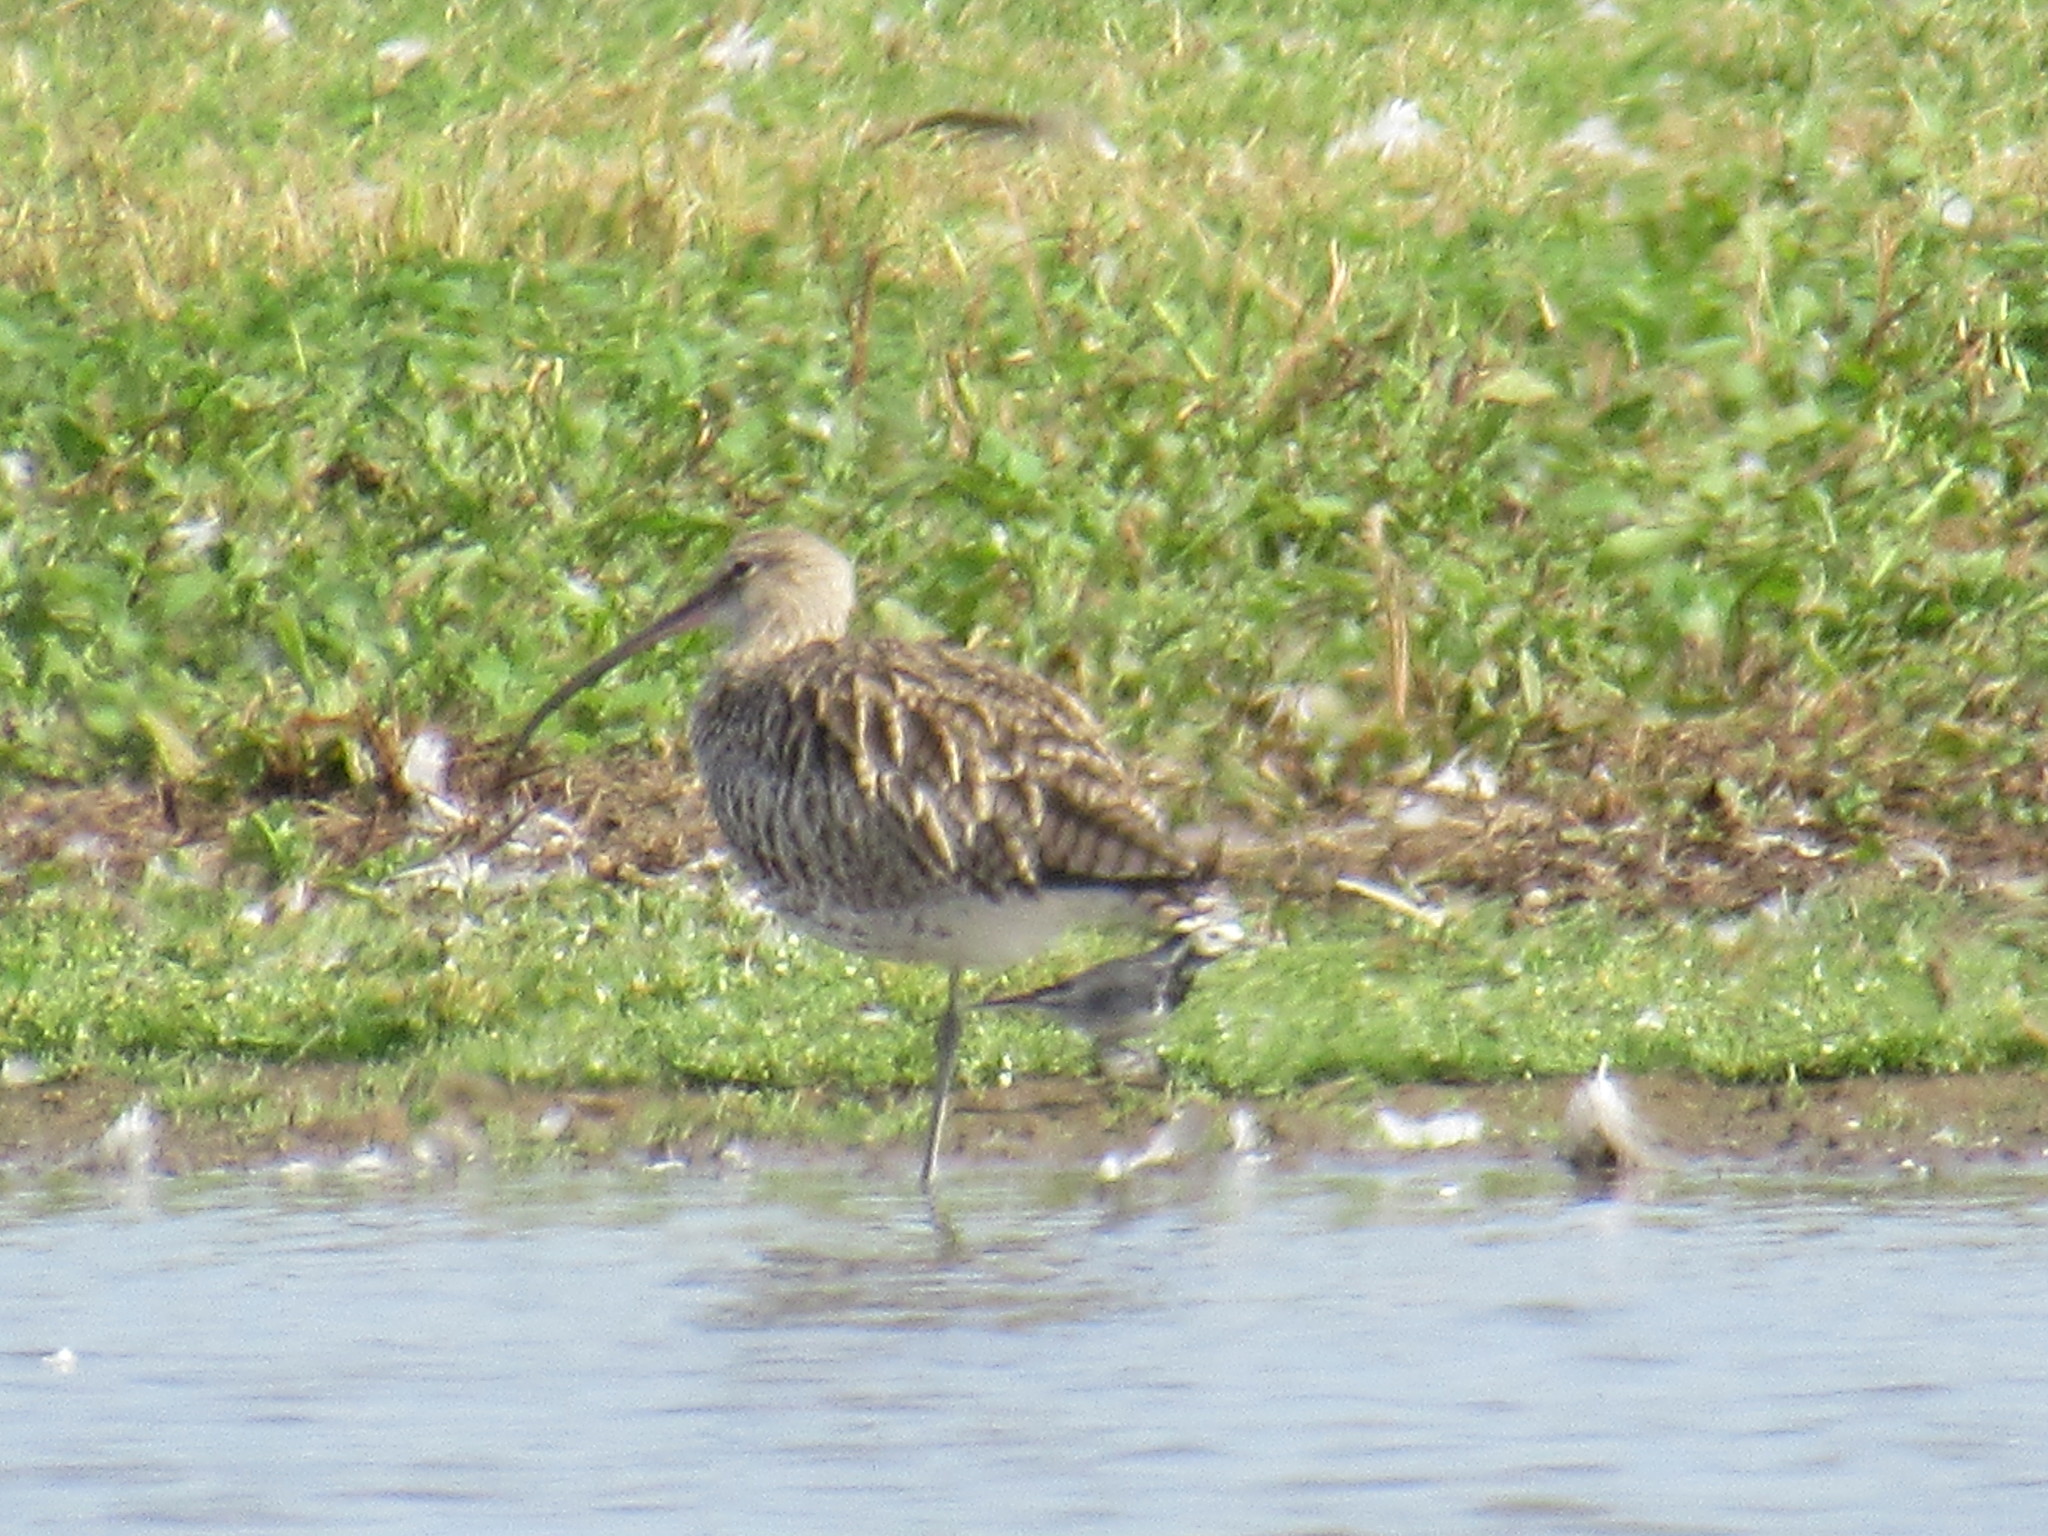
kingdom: Animalia
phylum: Chordata
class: Aves
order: Charadriiformes
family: Scolopacidae
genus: Numenius
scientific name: Numenius arquata
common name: Eurasian curlew
